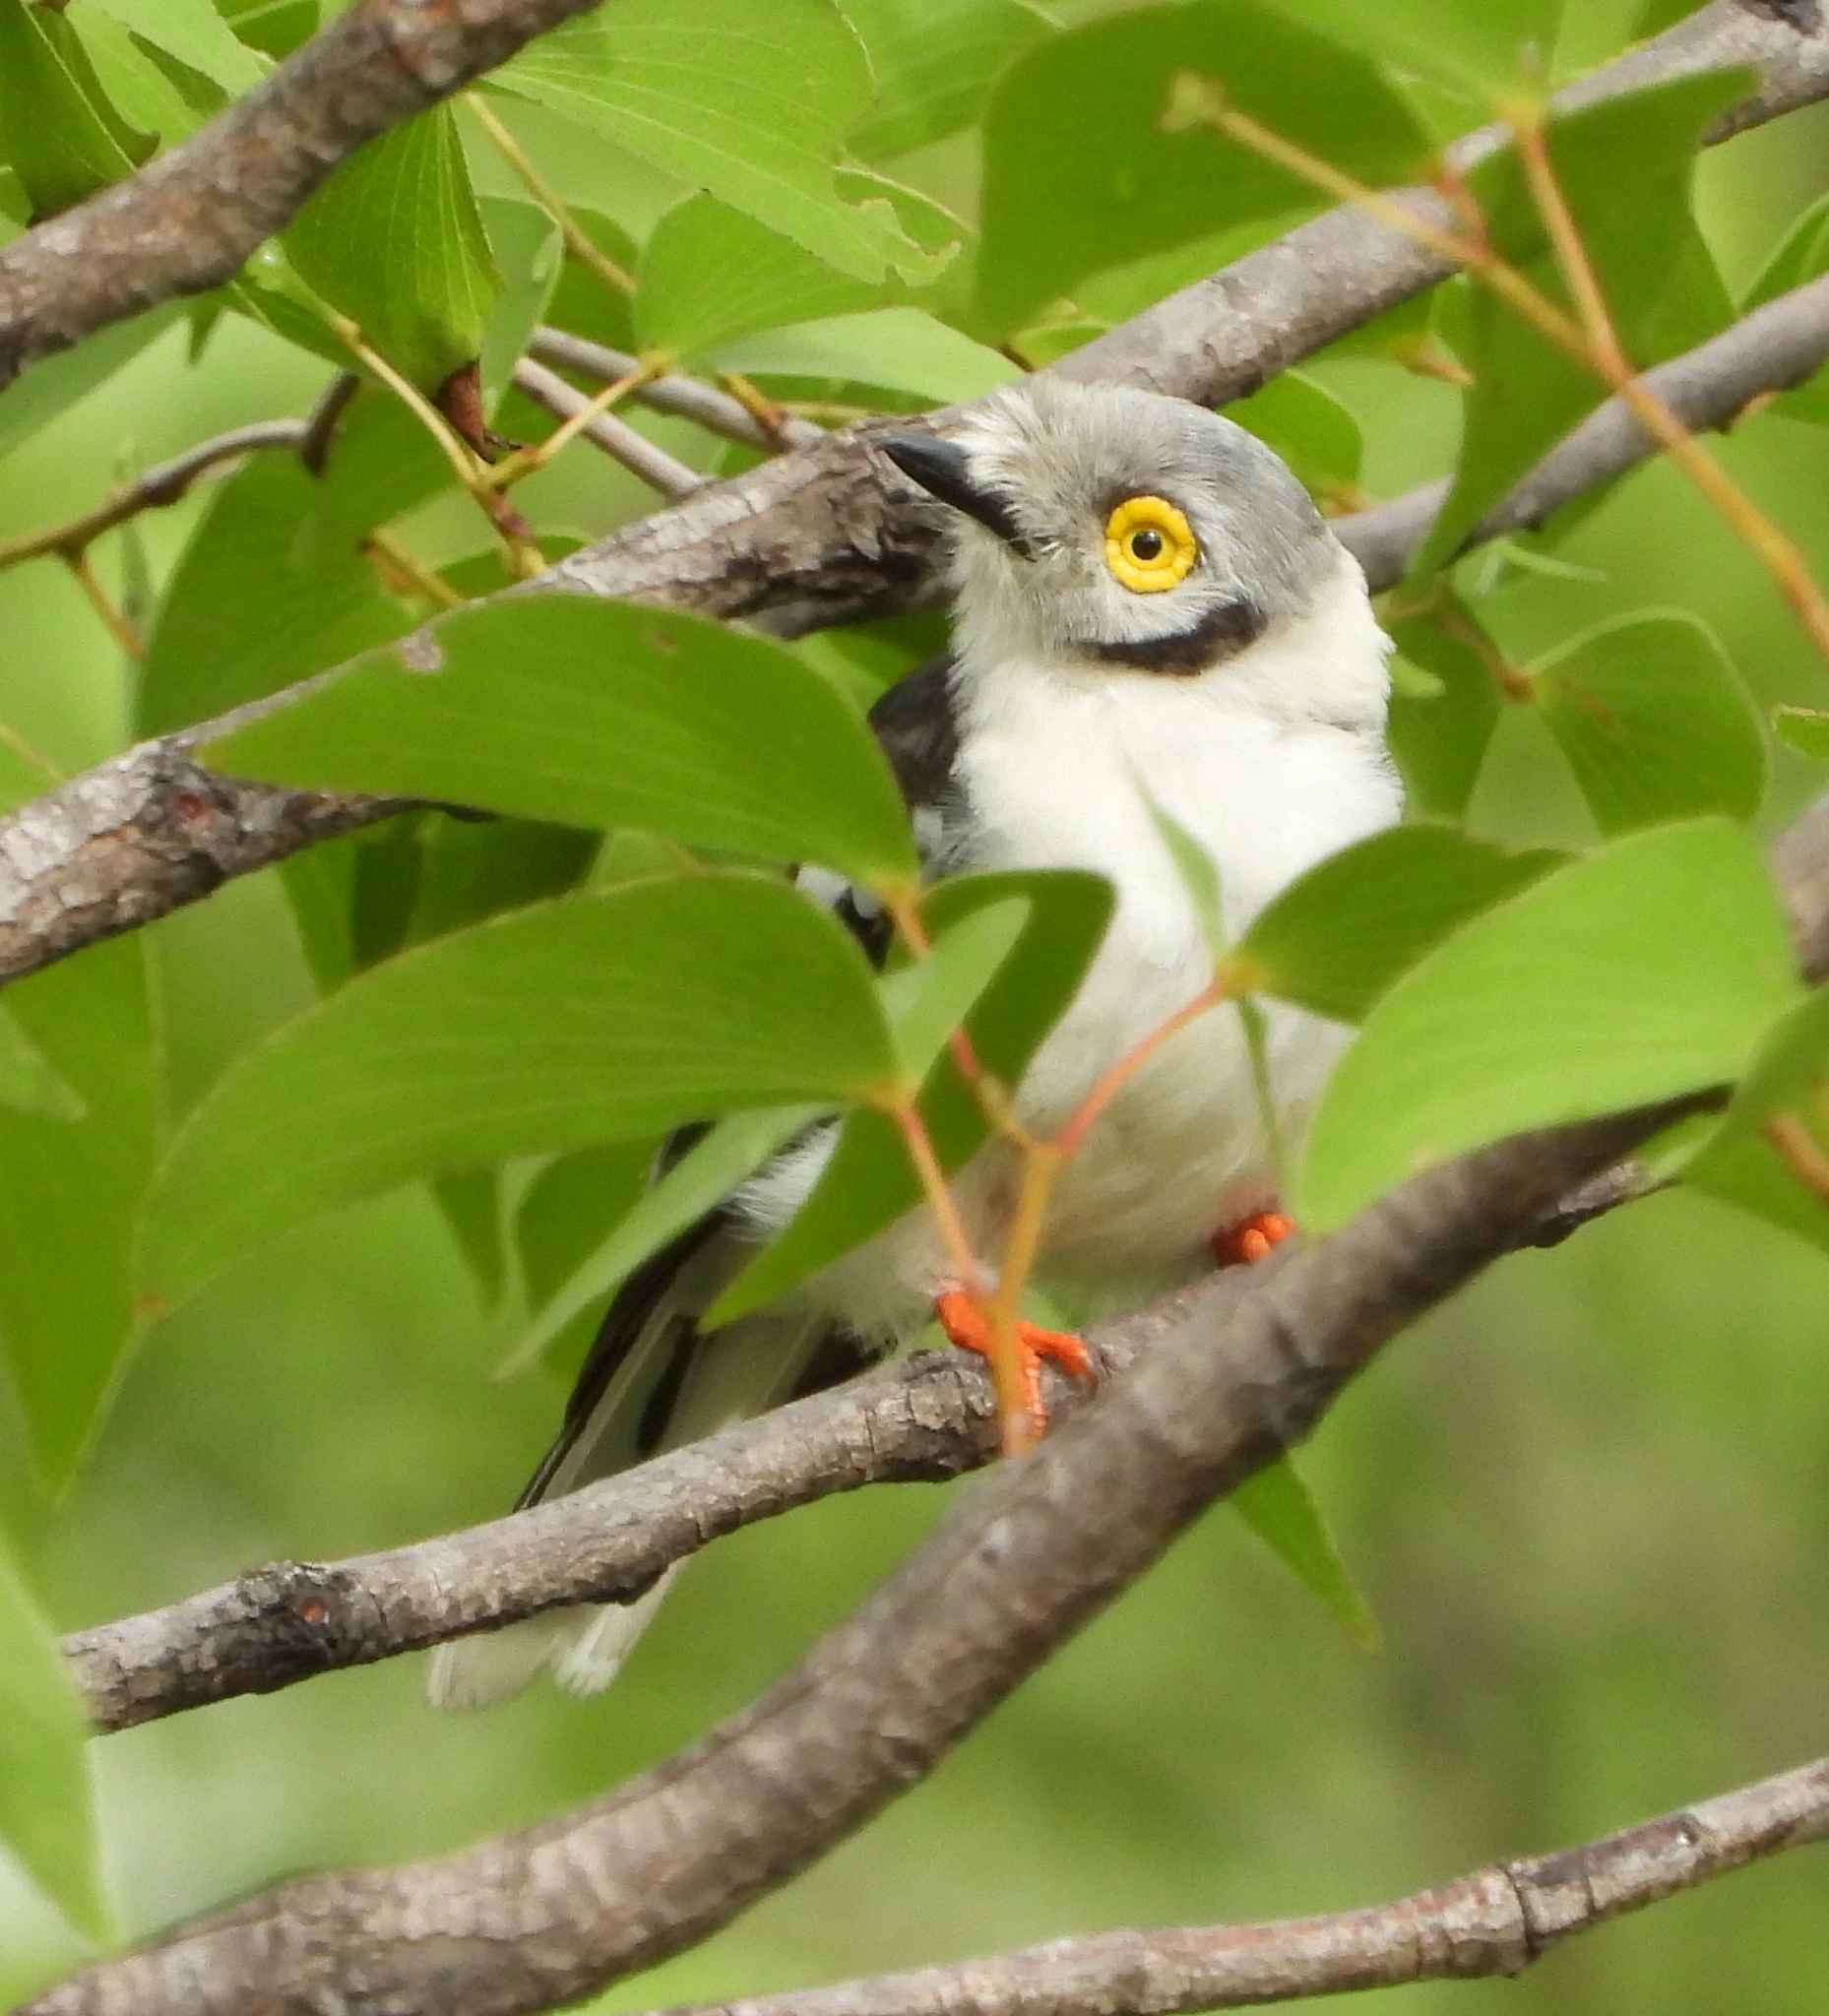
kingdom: Animalia
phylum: Chordata
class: Aves
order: Passeriformes
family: Prionopidae
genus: Prionops
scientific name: Prionops plumatus
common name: White-crested helmetshrike
